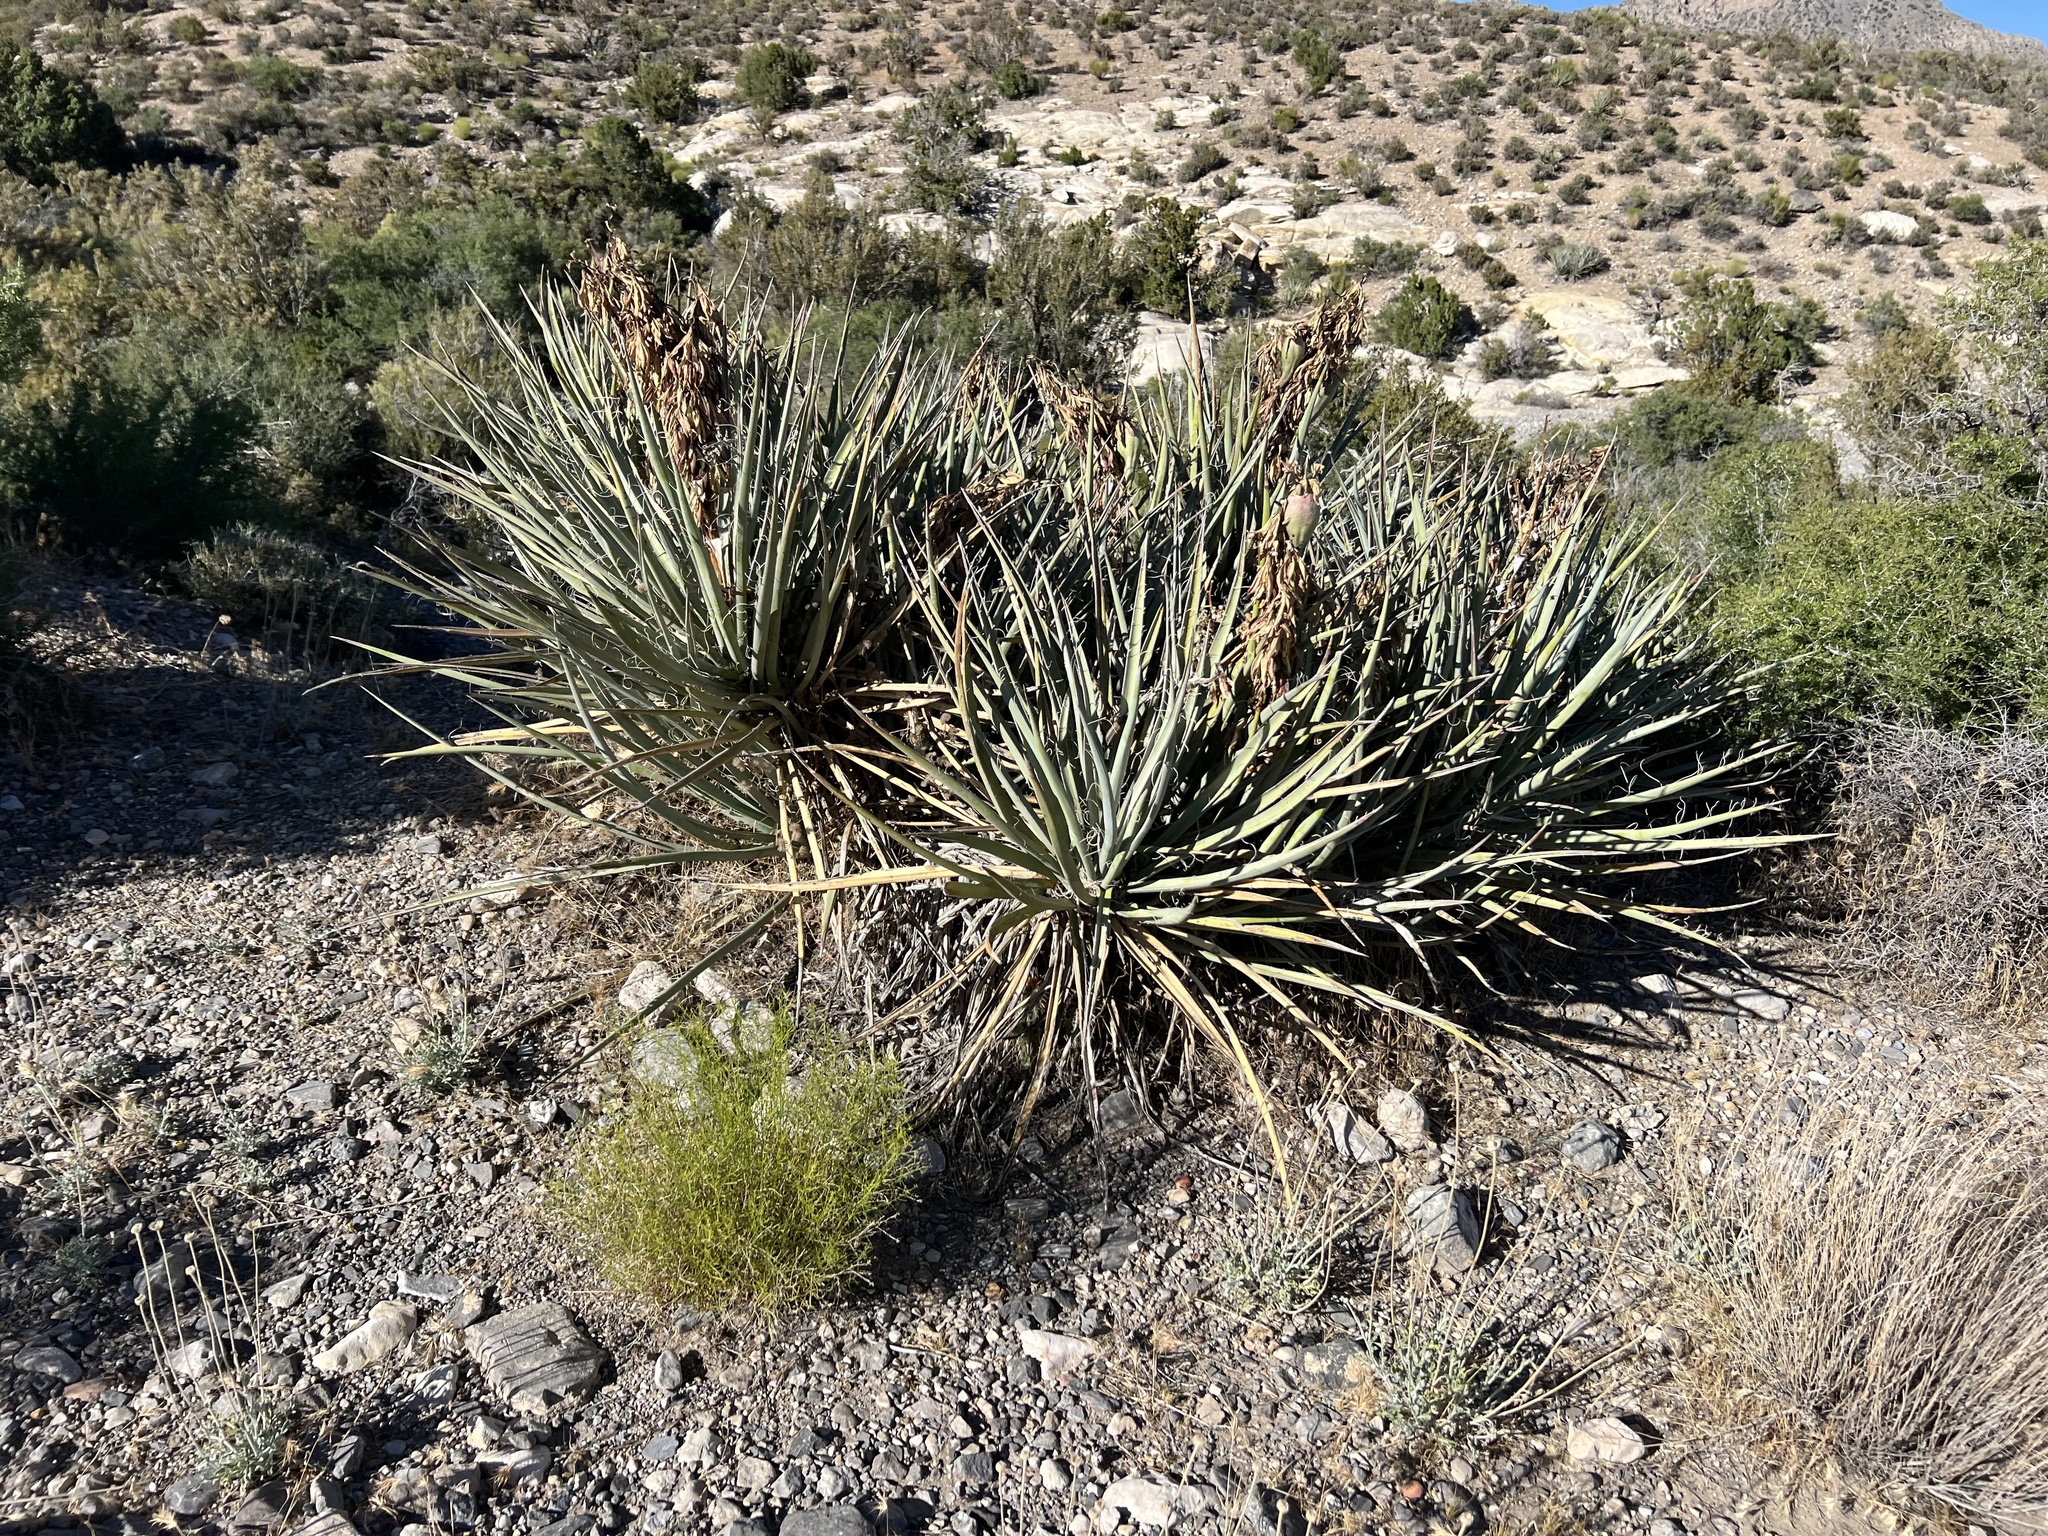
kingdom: Plantae
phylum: Tracheophyta
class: Liliopsida
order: Asparagales
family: Asparagaceae
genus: Yucca
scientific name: Yucca baccata
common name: Banana yucca
